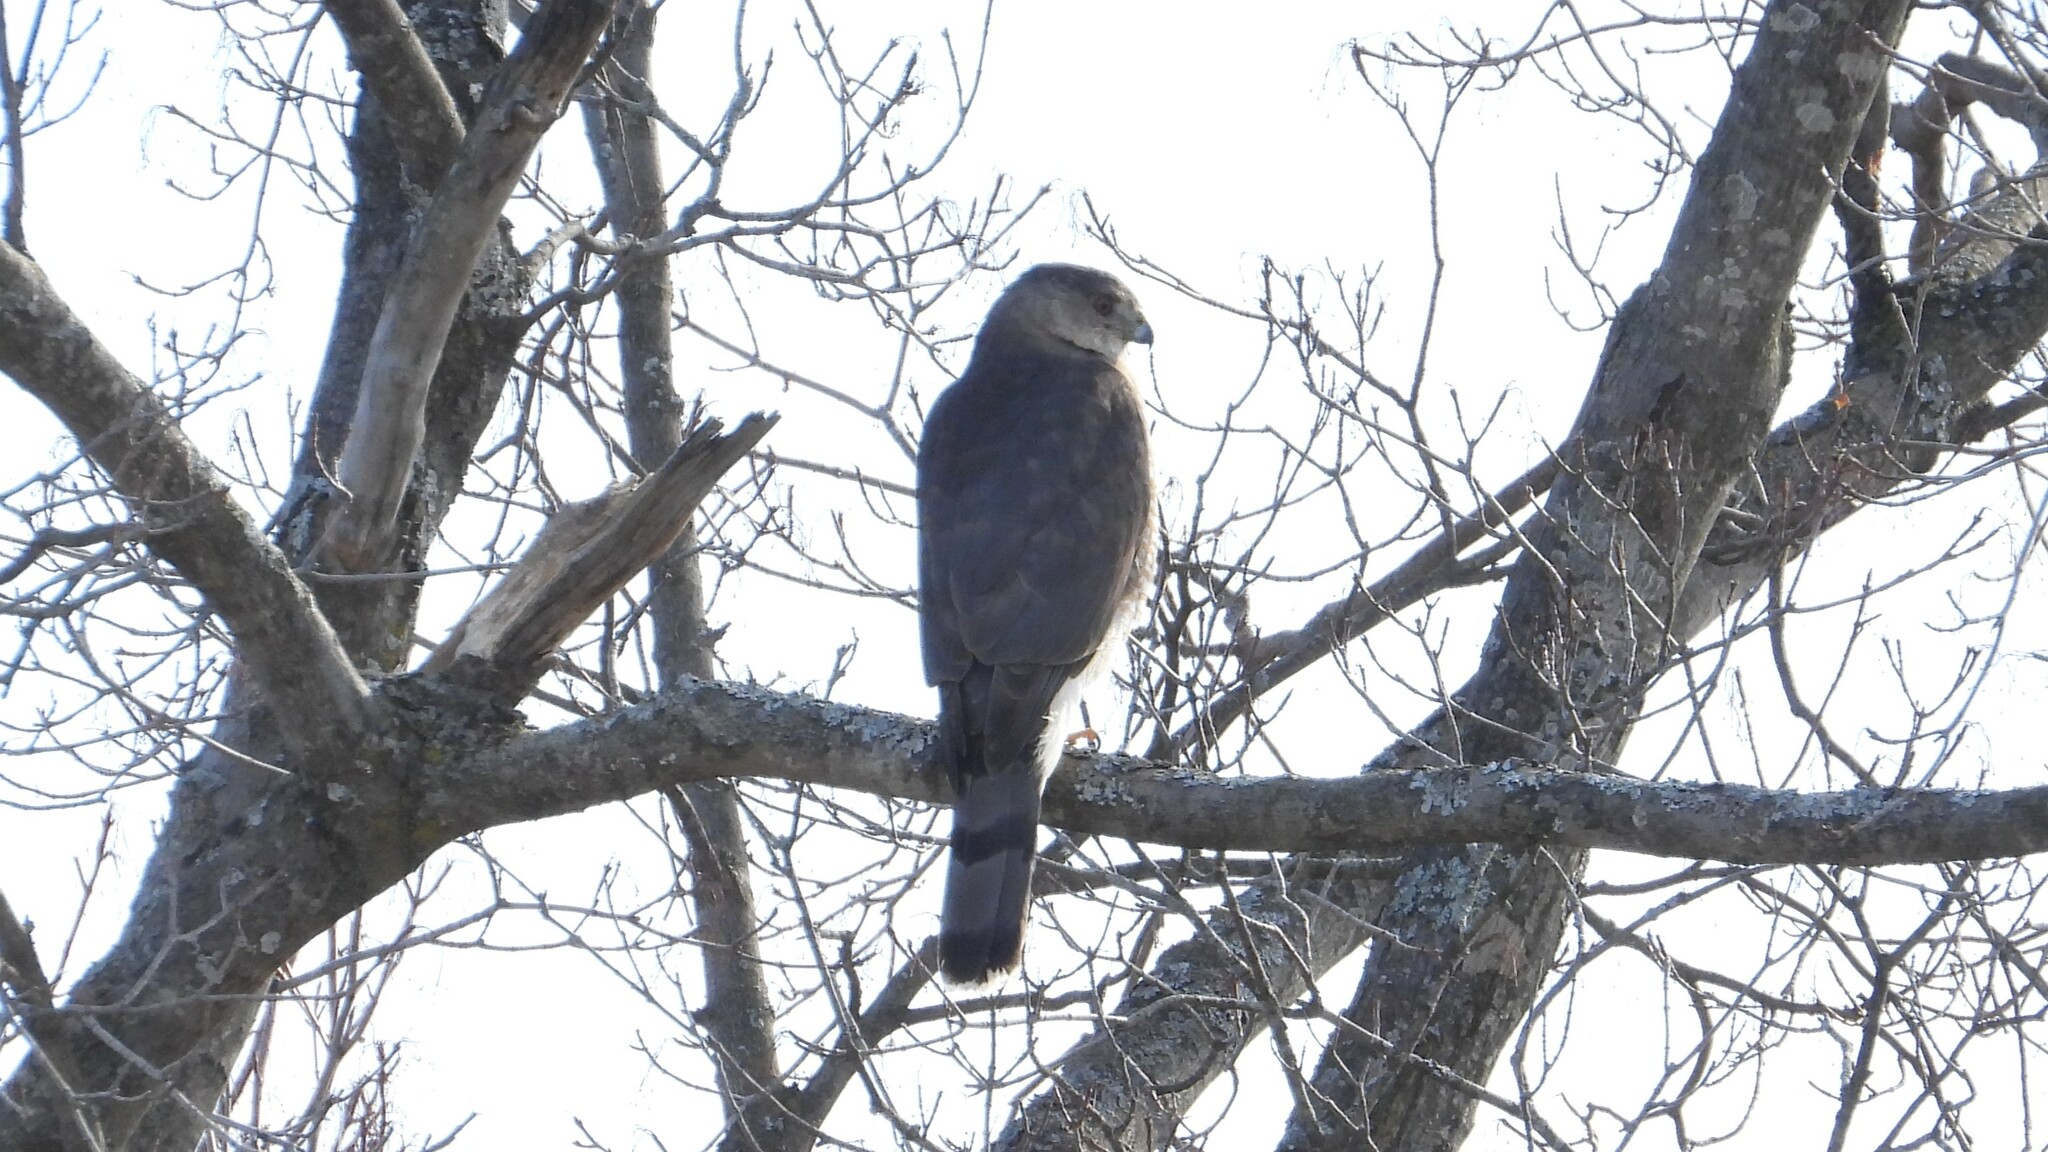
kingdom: Animalia
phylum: Chordata
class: Aves
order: Accipitriformes
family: Accipitridae
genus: Accipiter
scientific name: Accipiter cooperii
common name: Cooper's hawk
